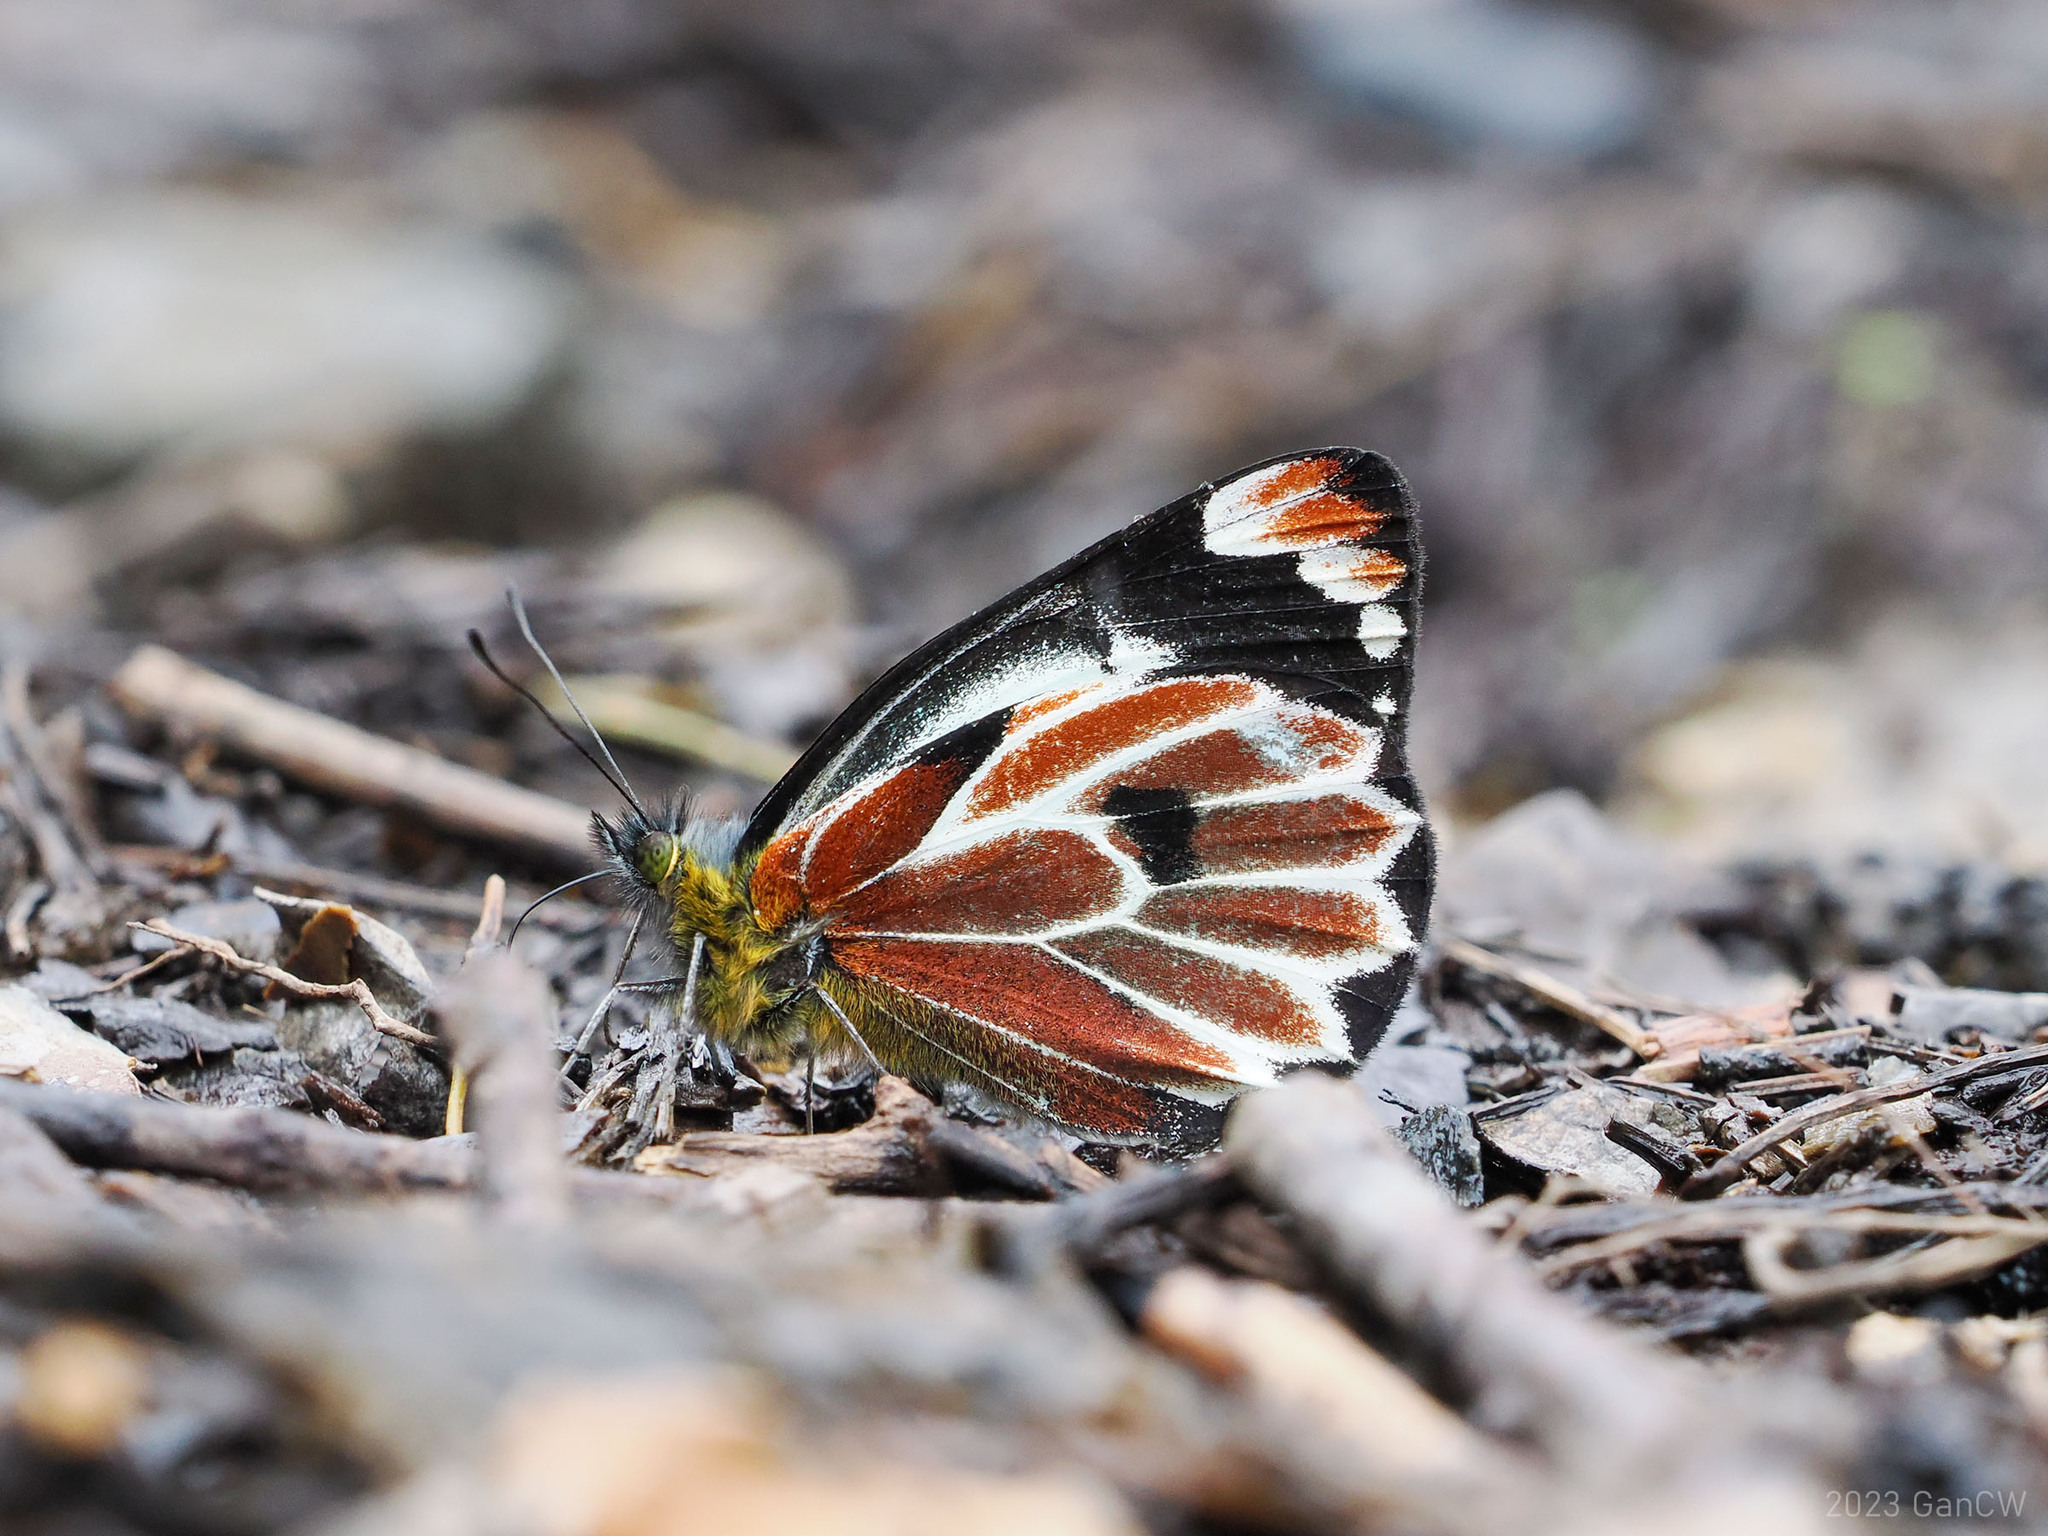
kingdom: Animalia
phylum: Arthropoda
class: Insecta
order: Lepidoptera
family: Pieridae
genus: Delias
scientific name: Delias klossi
